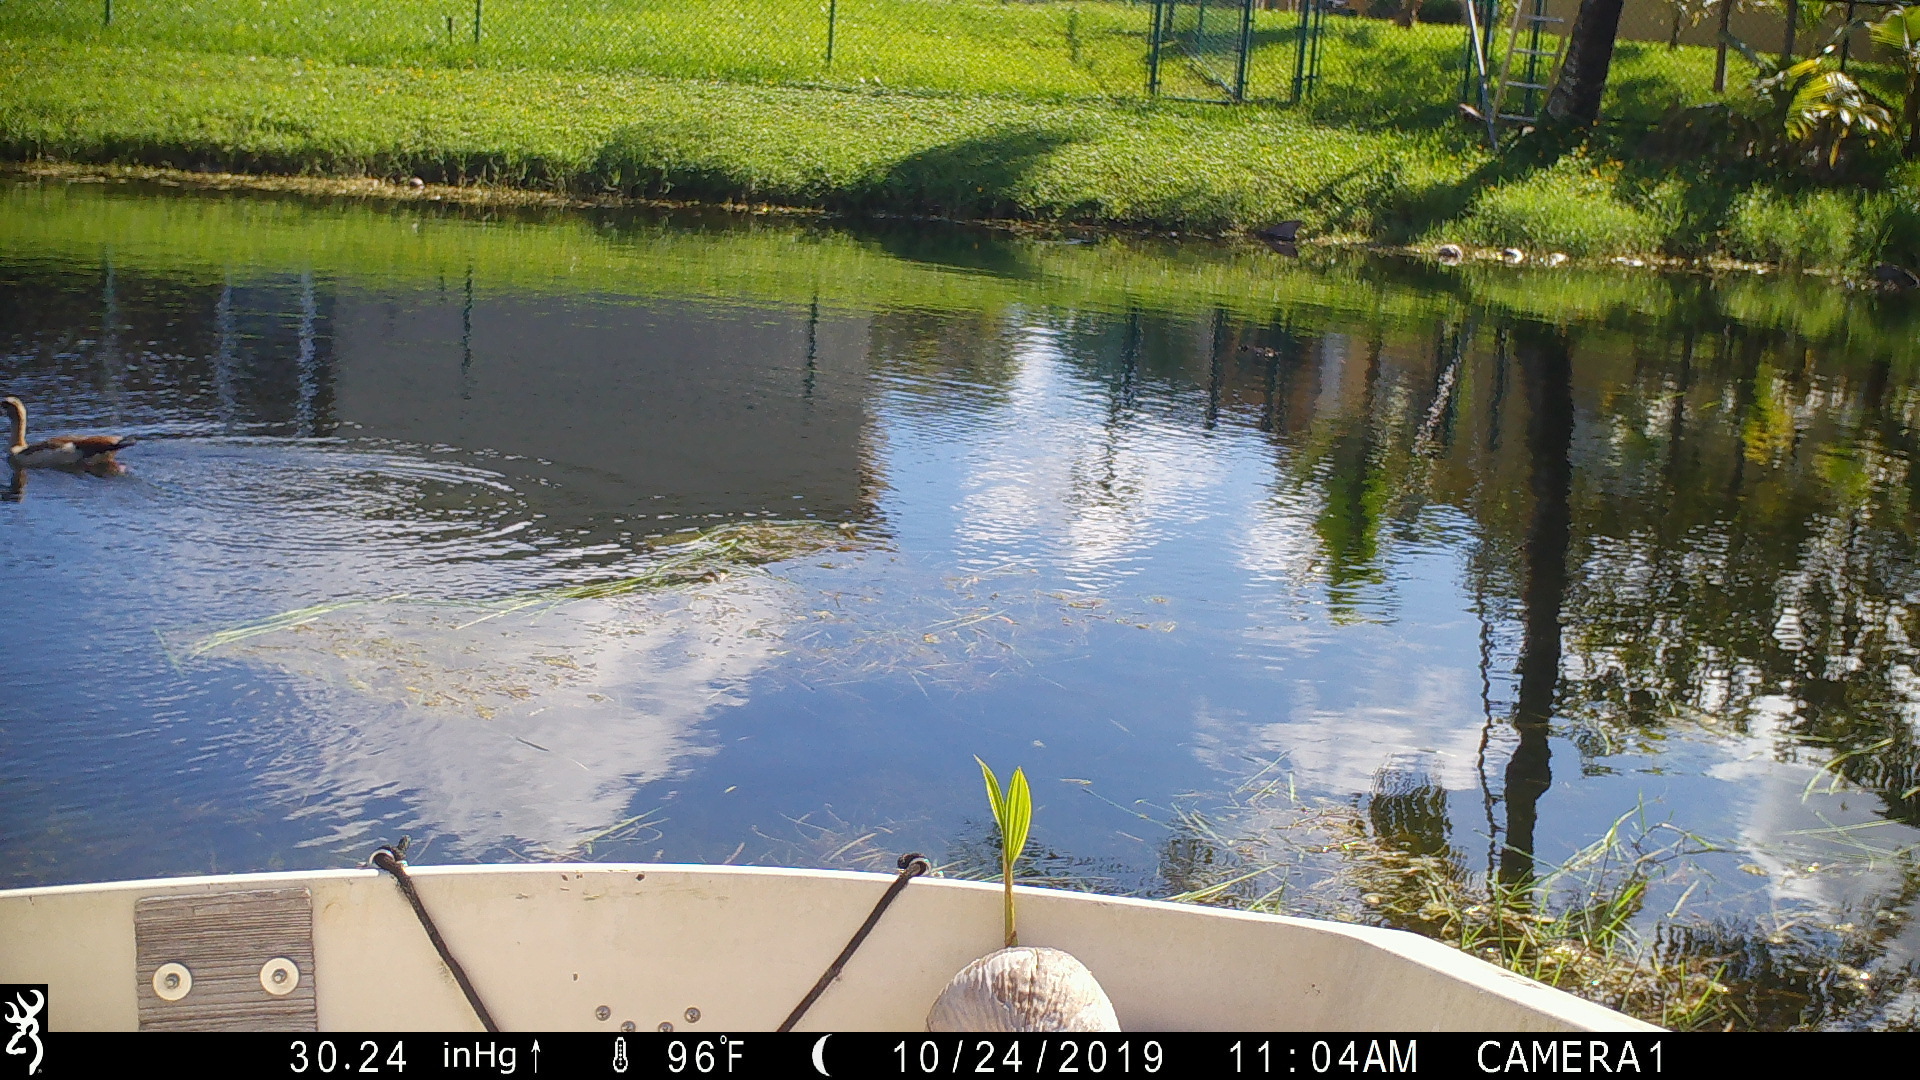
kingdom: Animalia
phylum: Chordata
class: Aves
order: Anseriformes
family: Anatidae
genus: Alopochen
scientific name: Alopochen aegyptiaca
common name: Egyptian goose
